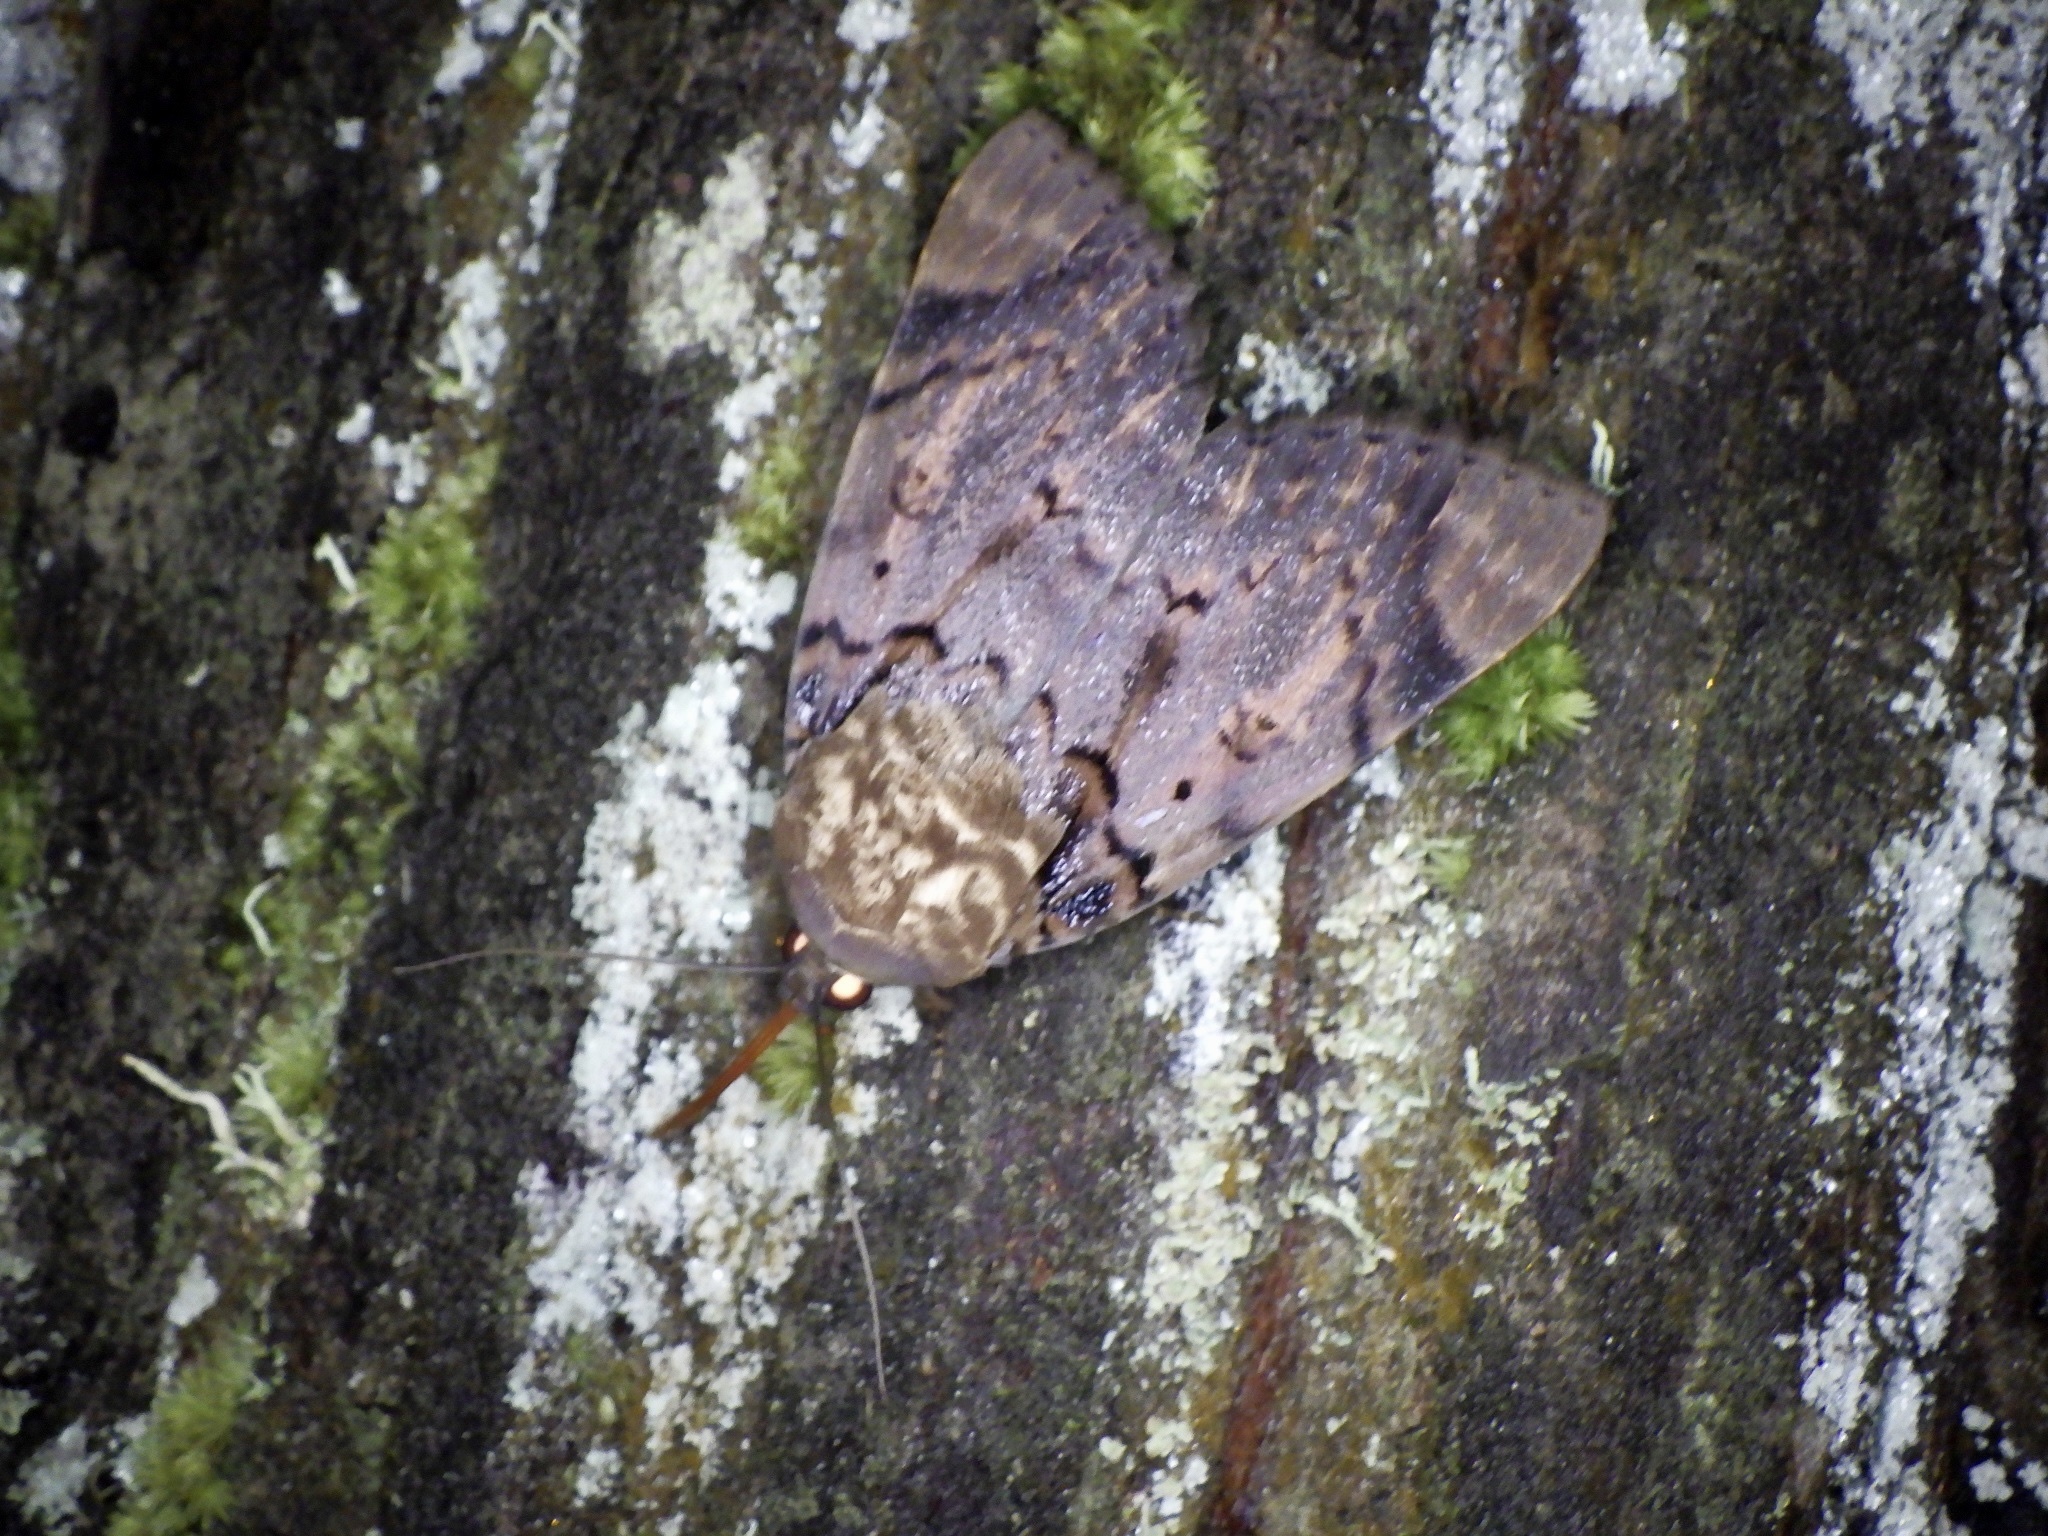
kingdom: Animalia
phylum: Arthropoda
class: Insecta
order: Lepidoptera
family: Erebidae
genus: Arcte
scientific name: Arcte coerula
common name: Ramie moth
